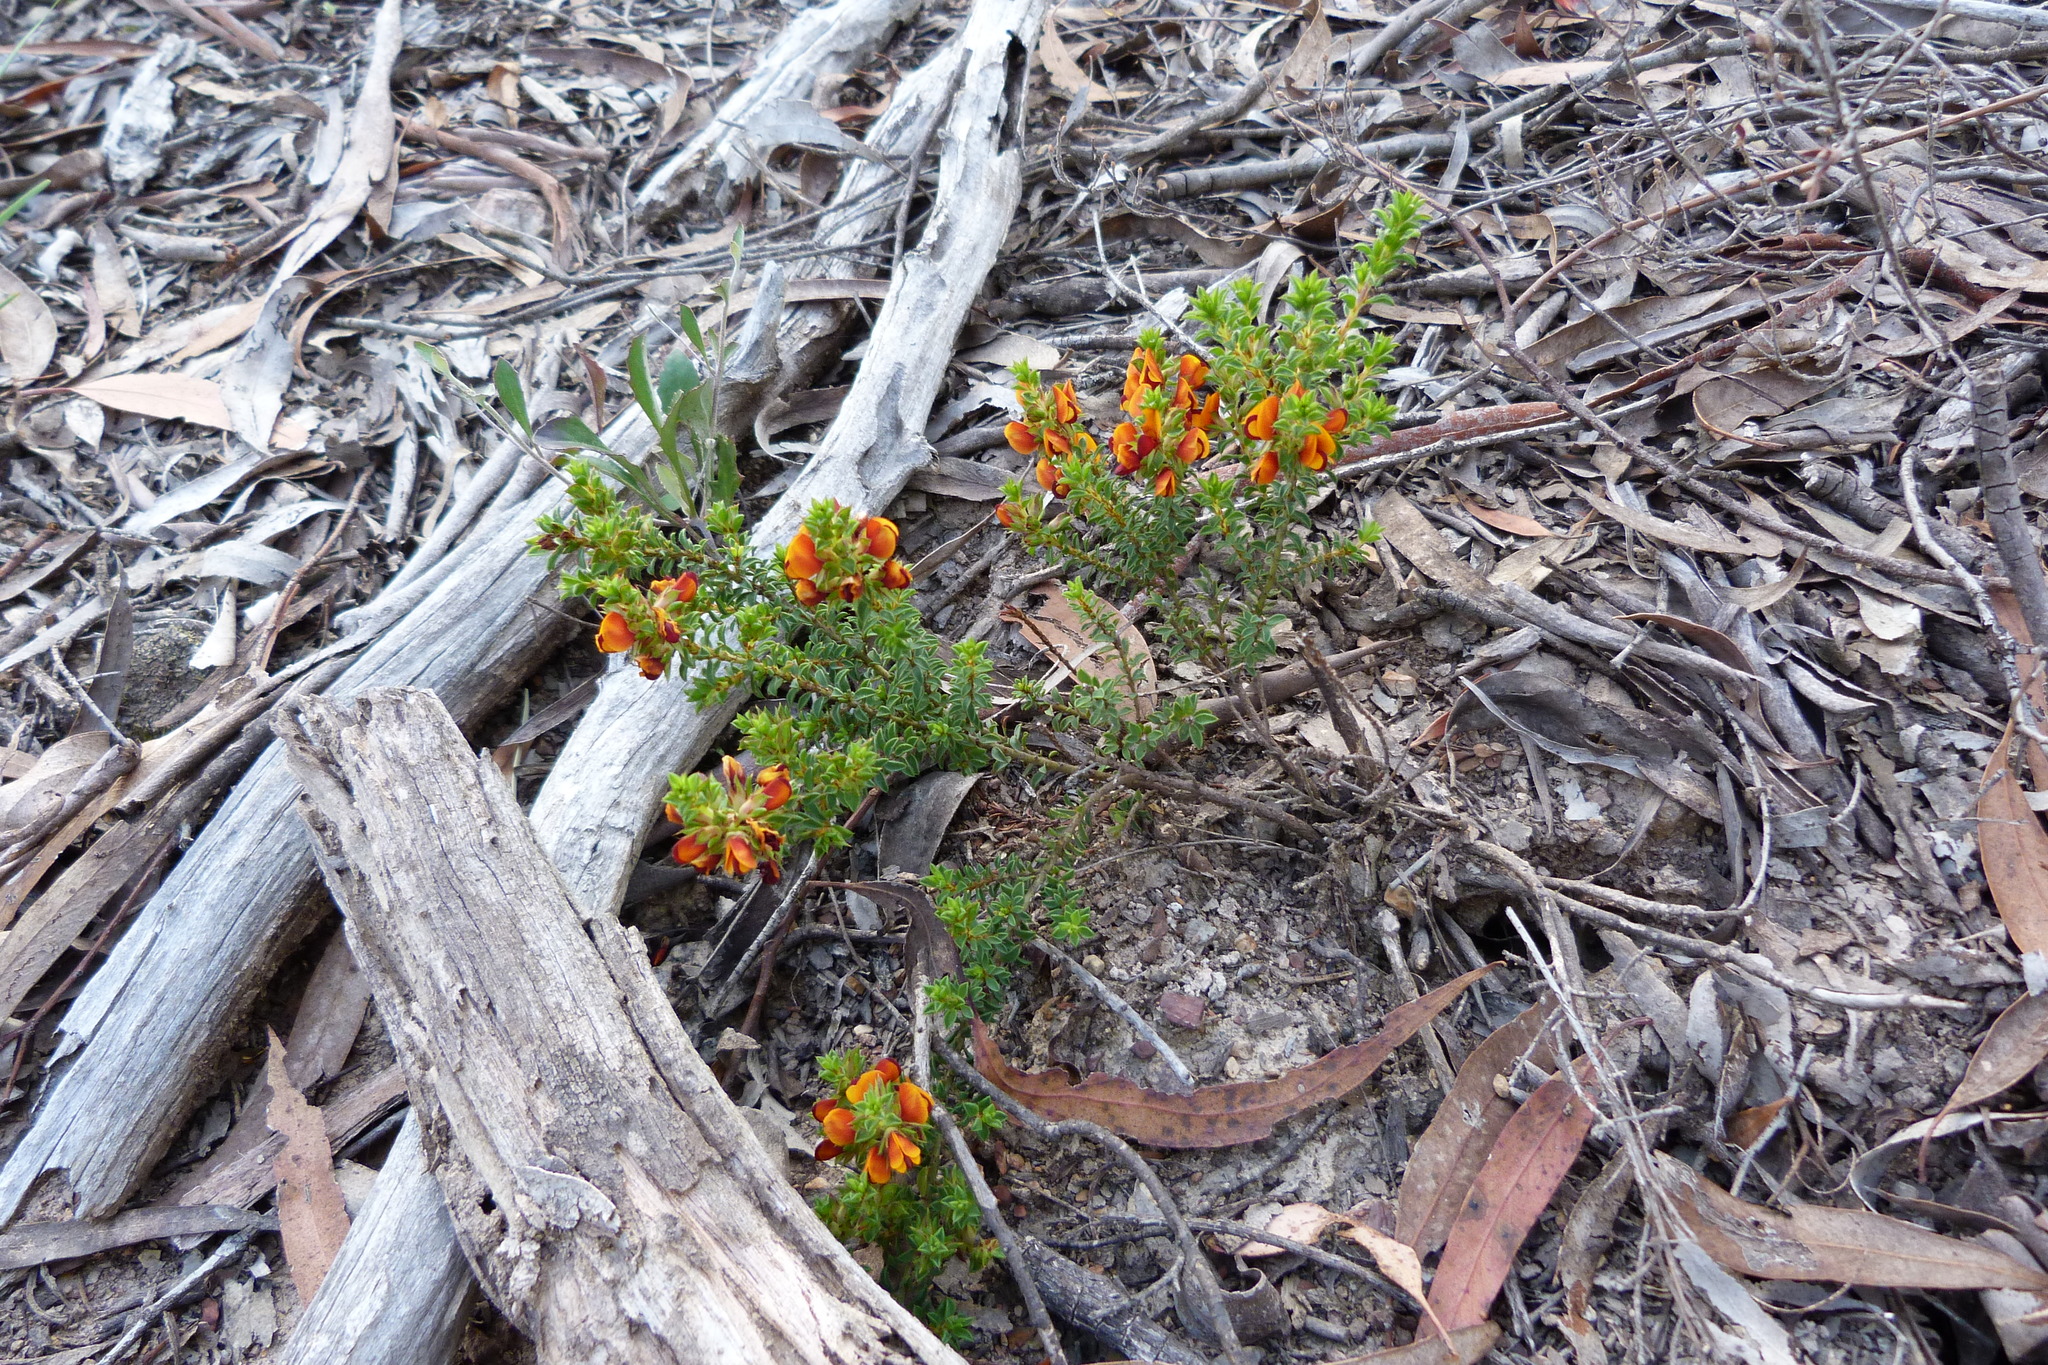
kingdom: Plantae
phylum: Tracheophyta
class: Magnoliopsida
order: Fabales
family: Fabaceae
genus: Pultenaea
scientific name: Pultenaea procumbens
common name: Heathy bush-pea
